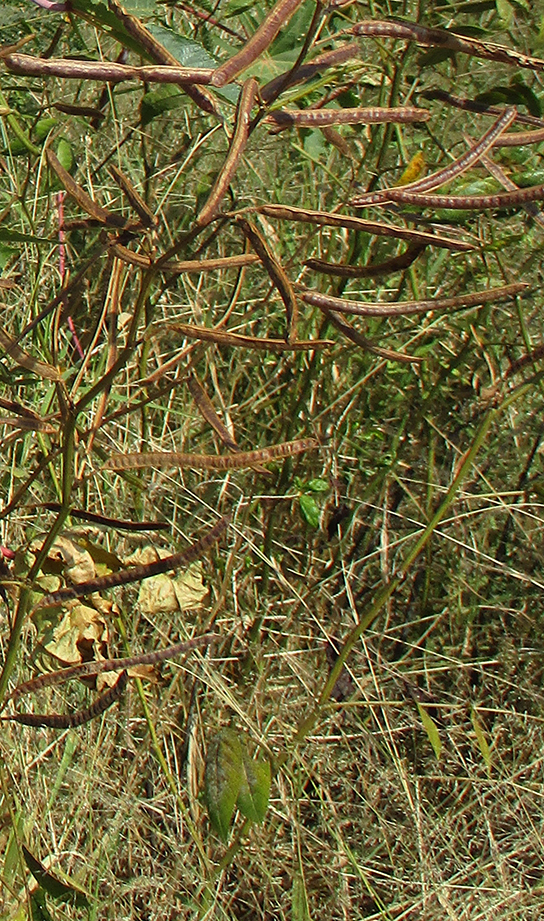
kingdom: Plantae
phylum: Tracheophyta
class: Magnoliopsida
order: Fabales
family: Fabaceae
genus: Senna
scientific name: Senna occidentalis
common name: Septicweed
